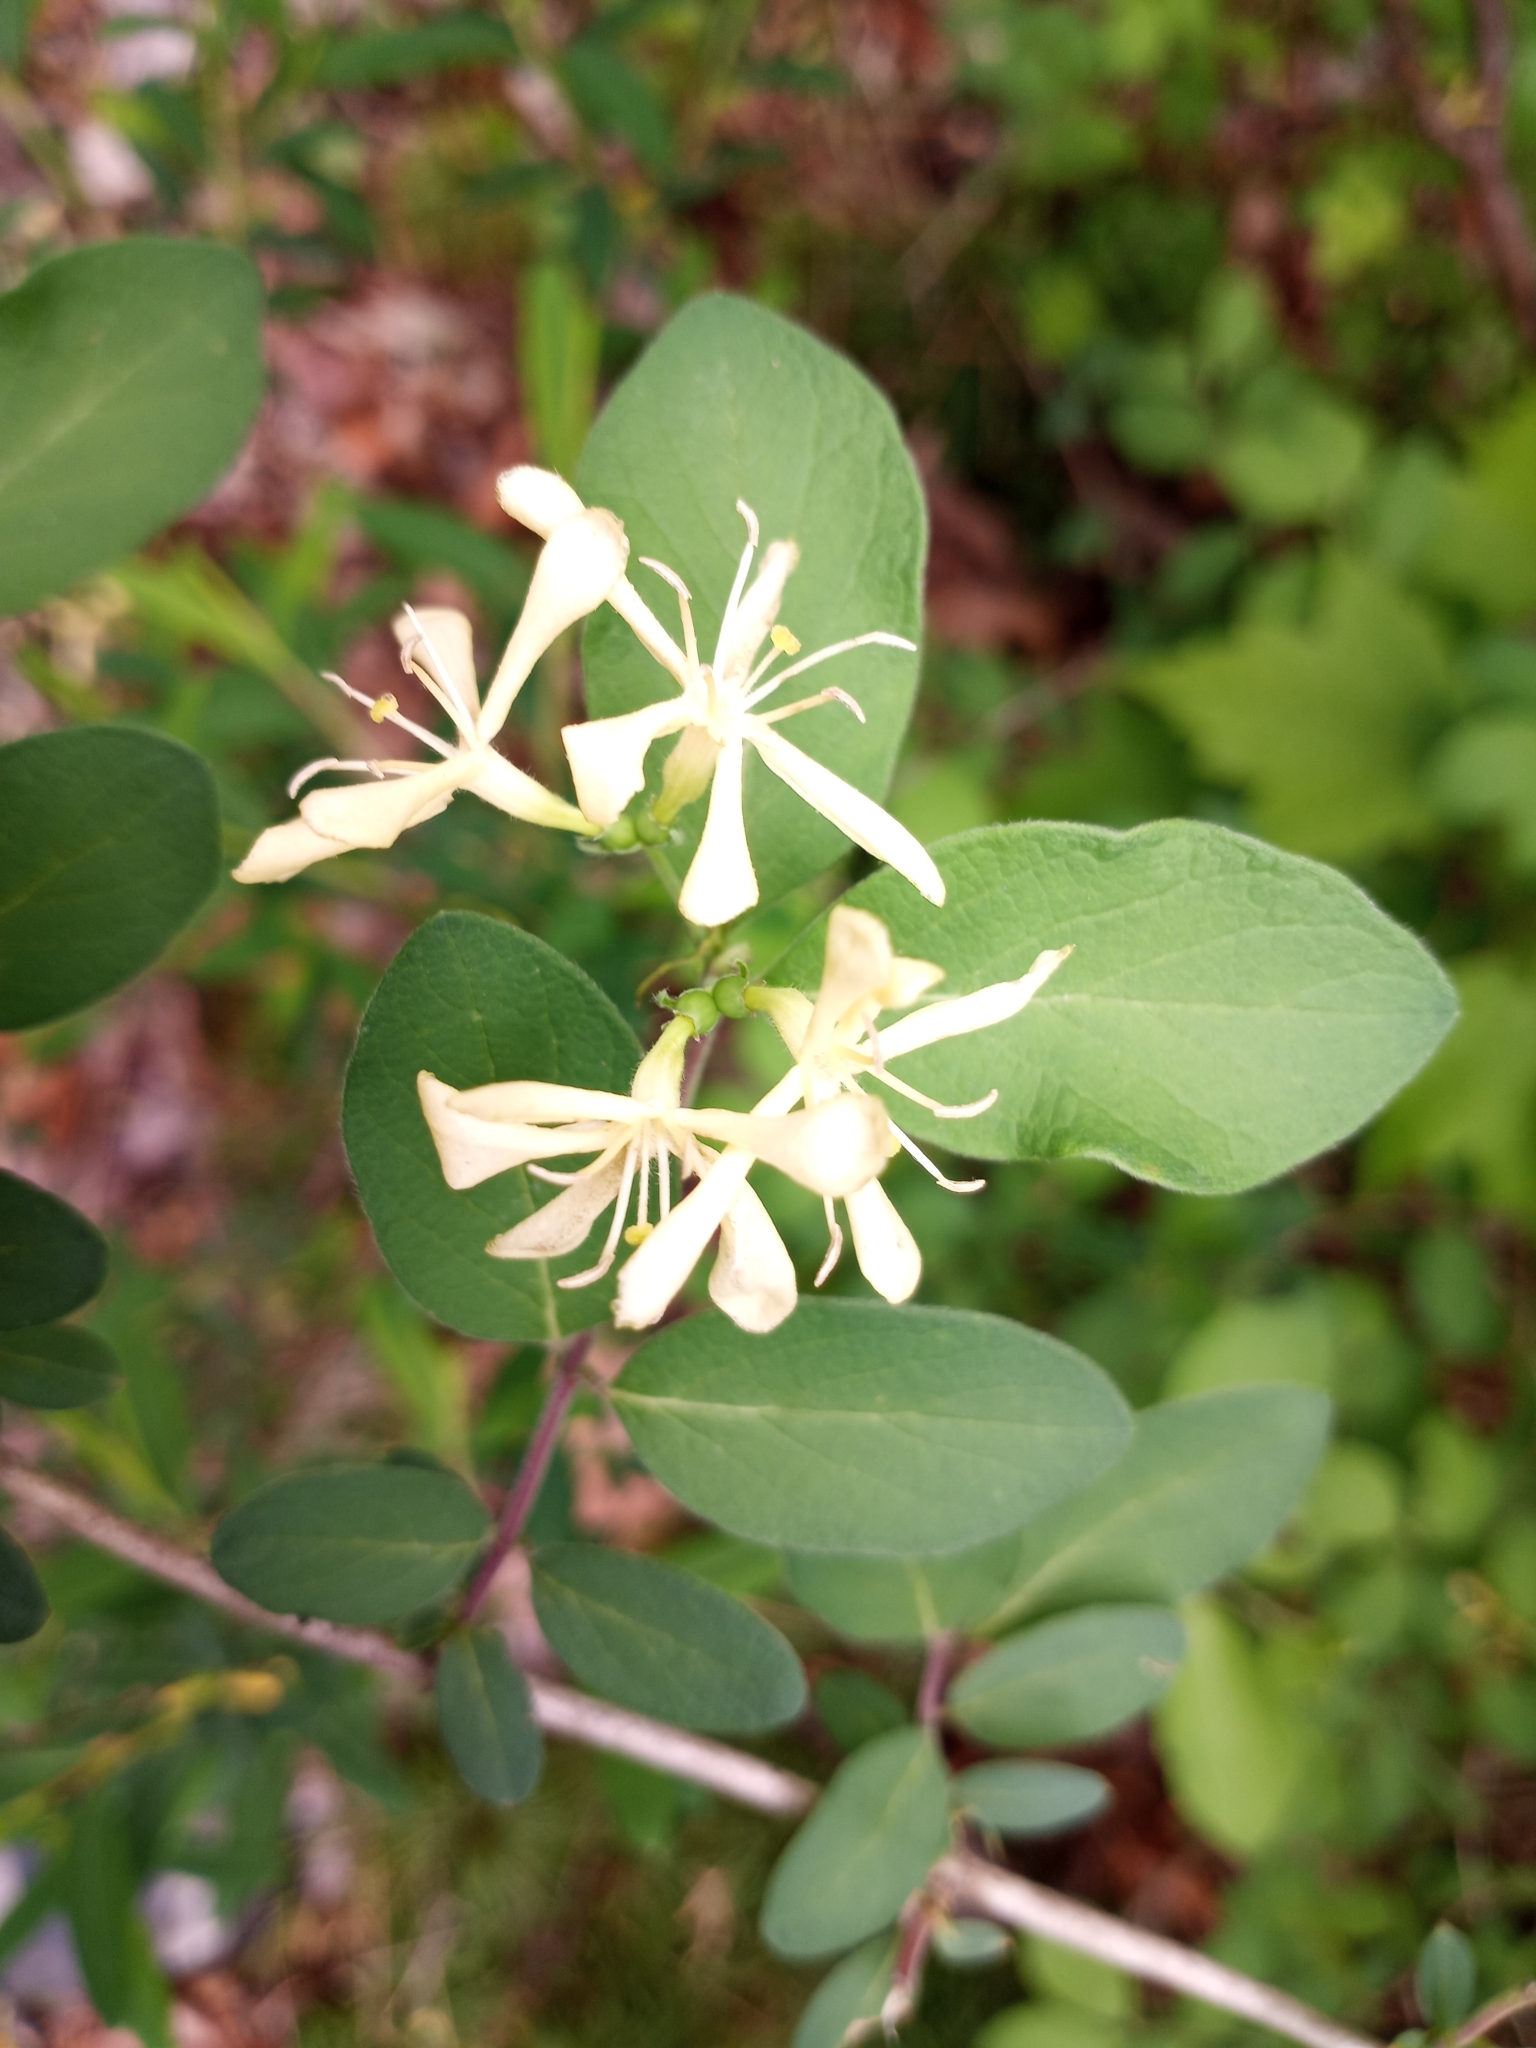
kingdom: Plantae
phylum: Tracheophyta
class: Magnoliopsida
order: Dipsacales
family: Caprifoliaceae
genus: Lonicera
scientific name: Lonicera morrowii
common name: Morrow's honeysuckle
